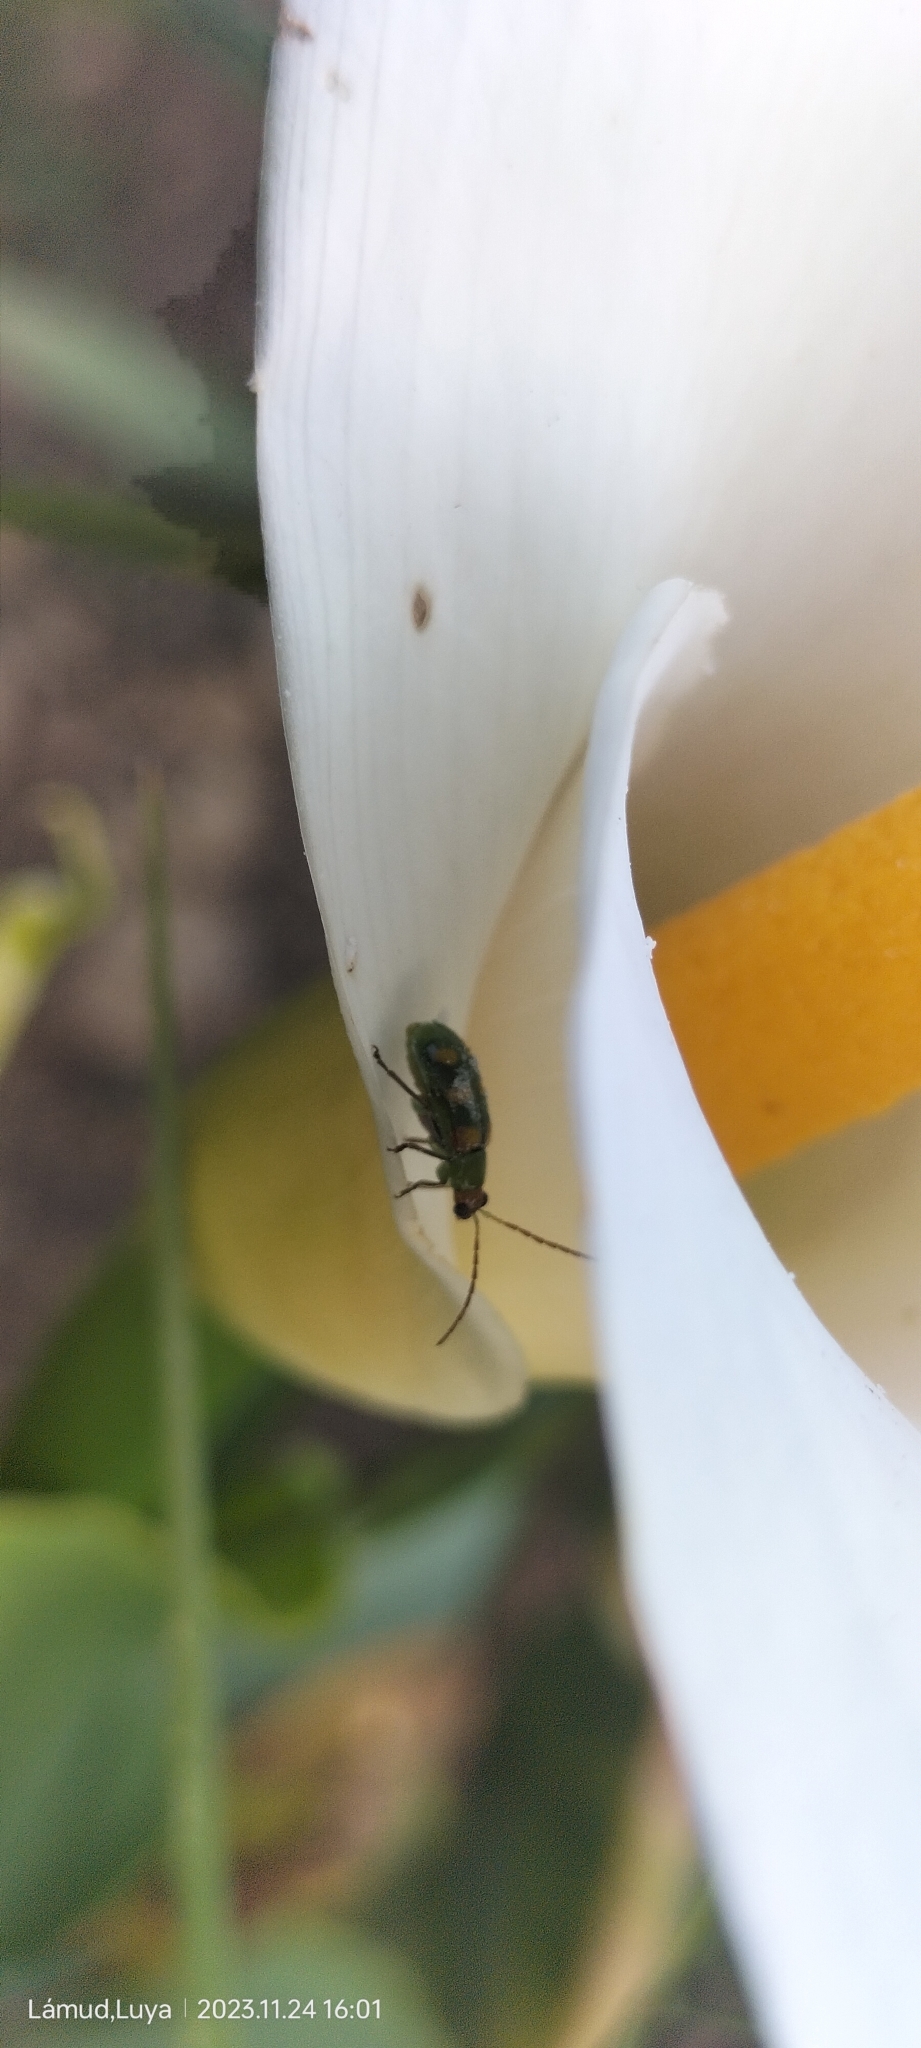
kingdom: Animalia
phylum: Arthropoda
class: Insecta
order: Coleoptera
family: Chrysomelidae
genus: Diabrotica
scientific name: Diabrotica decempunctata
